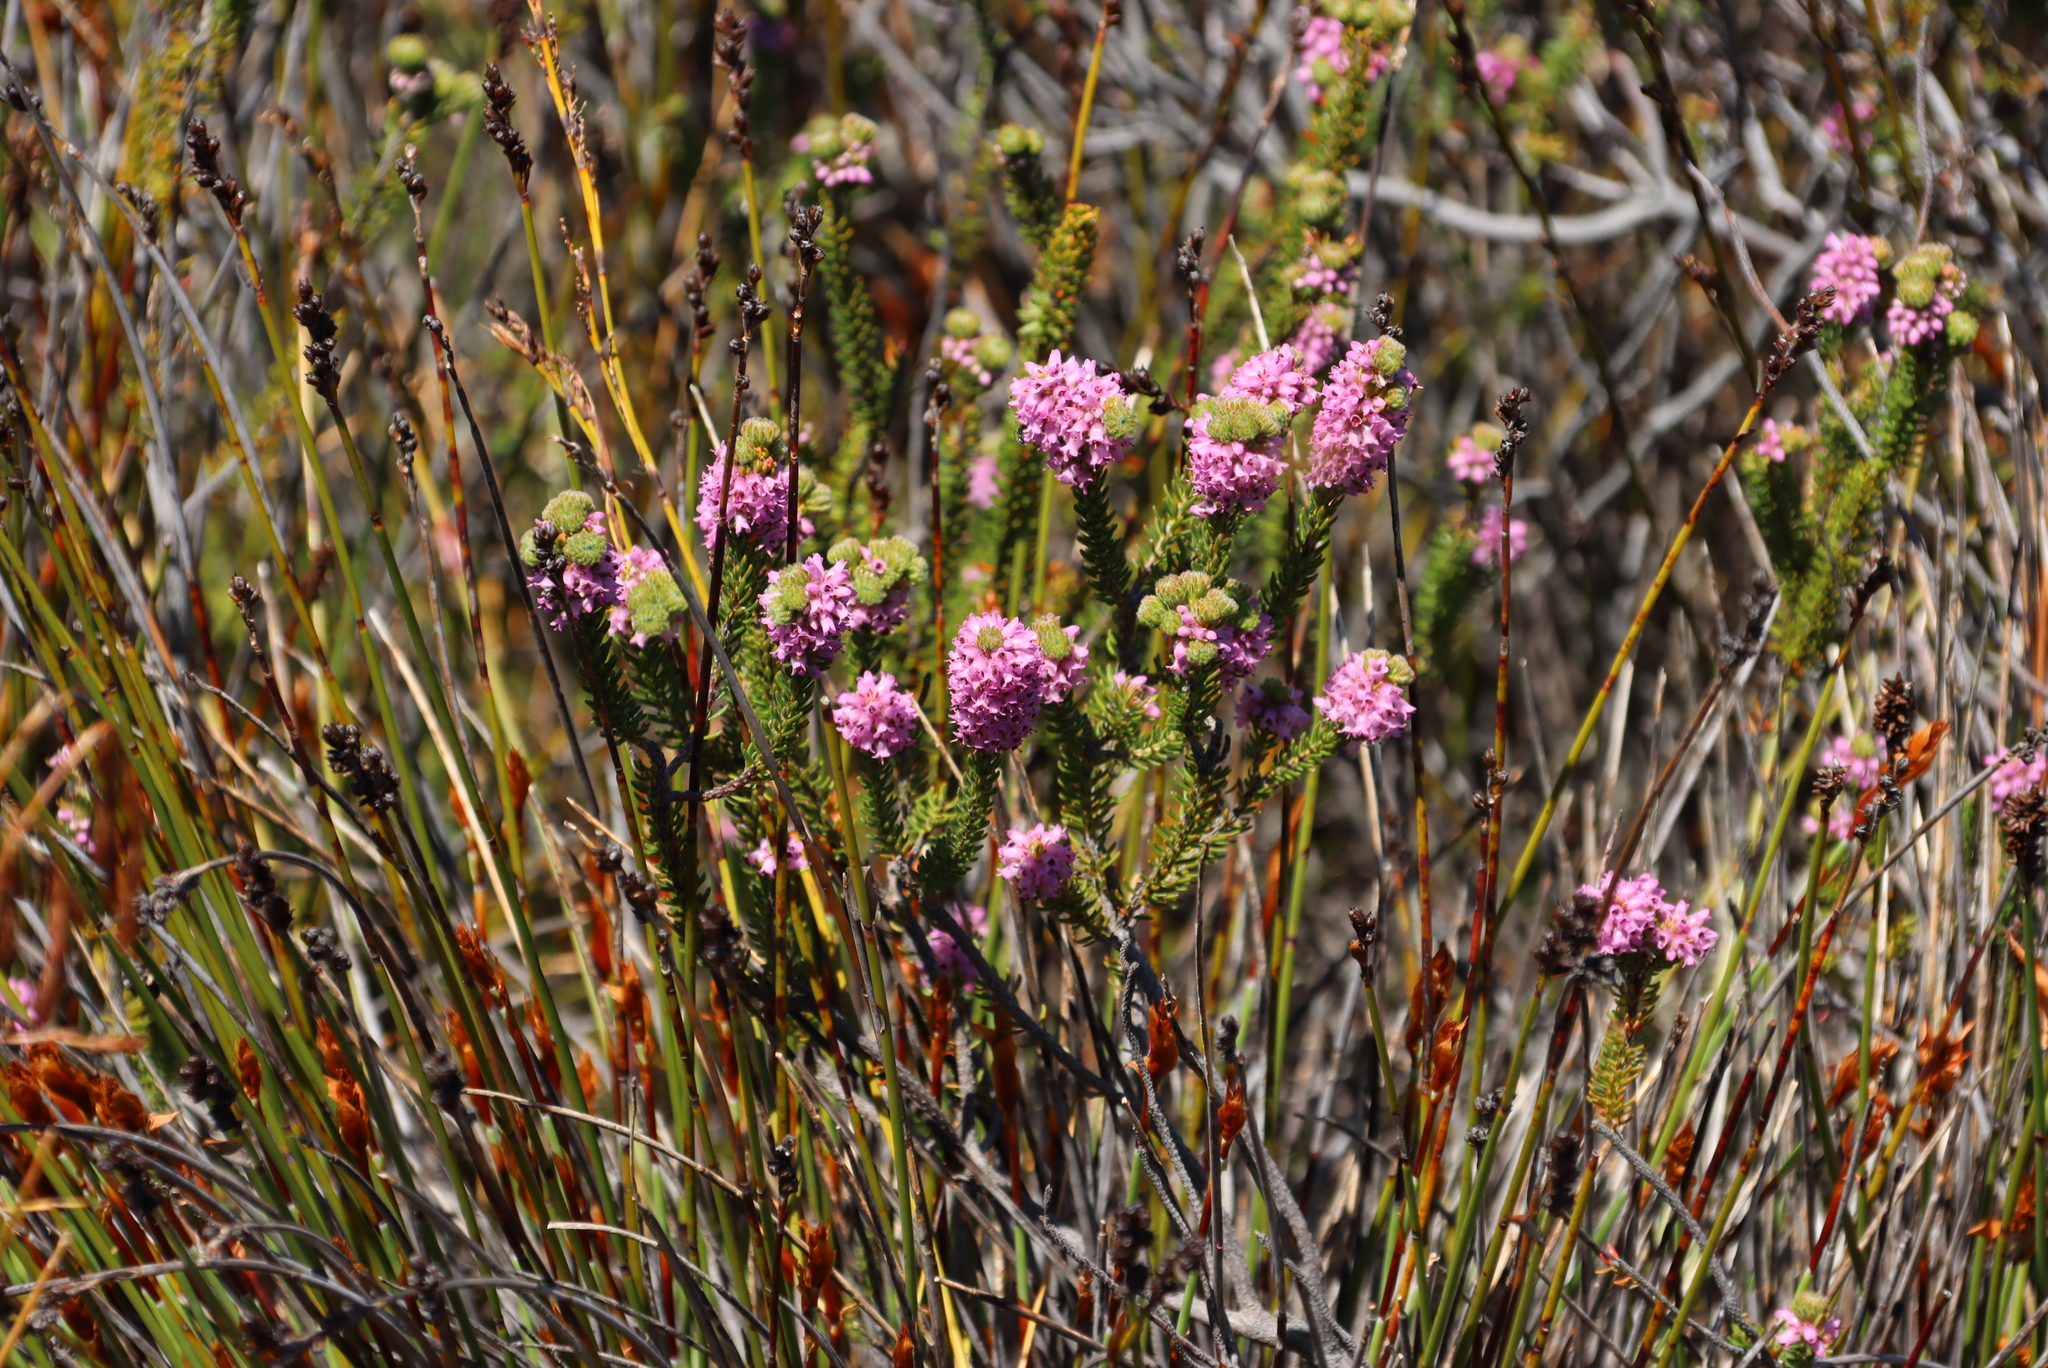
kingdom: Plantae
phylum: Tracheophyta
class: Magnoliopsida
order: Ericales
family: Ericaceae
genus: Erica
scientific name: Erica empetrina
